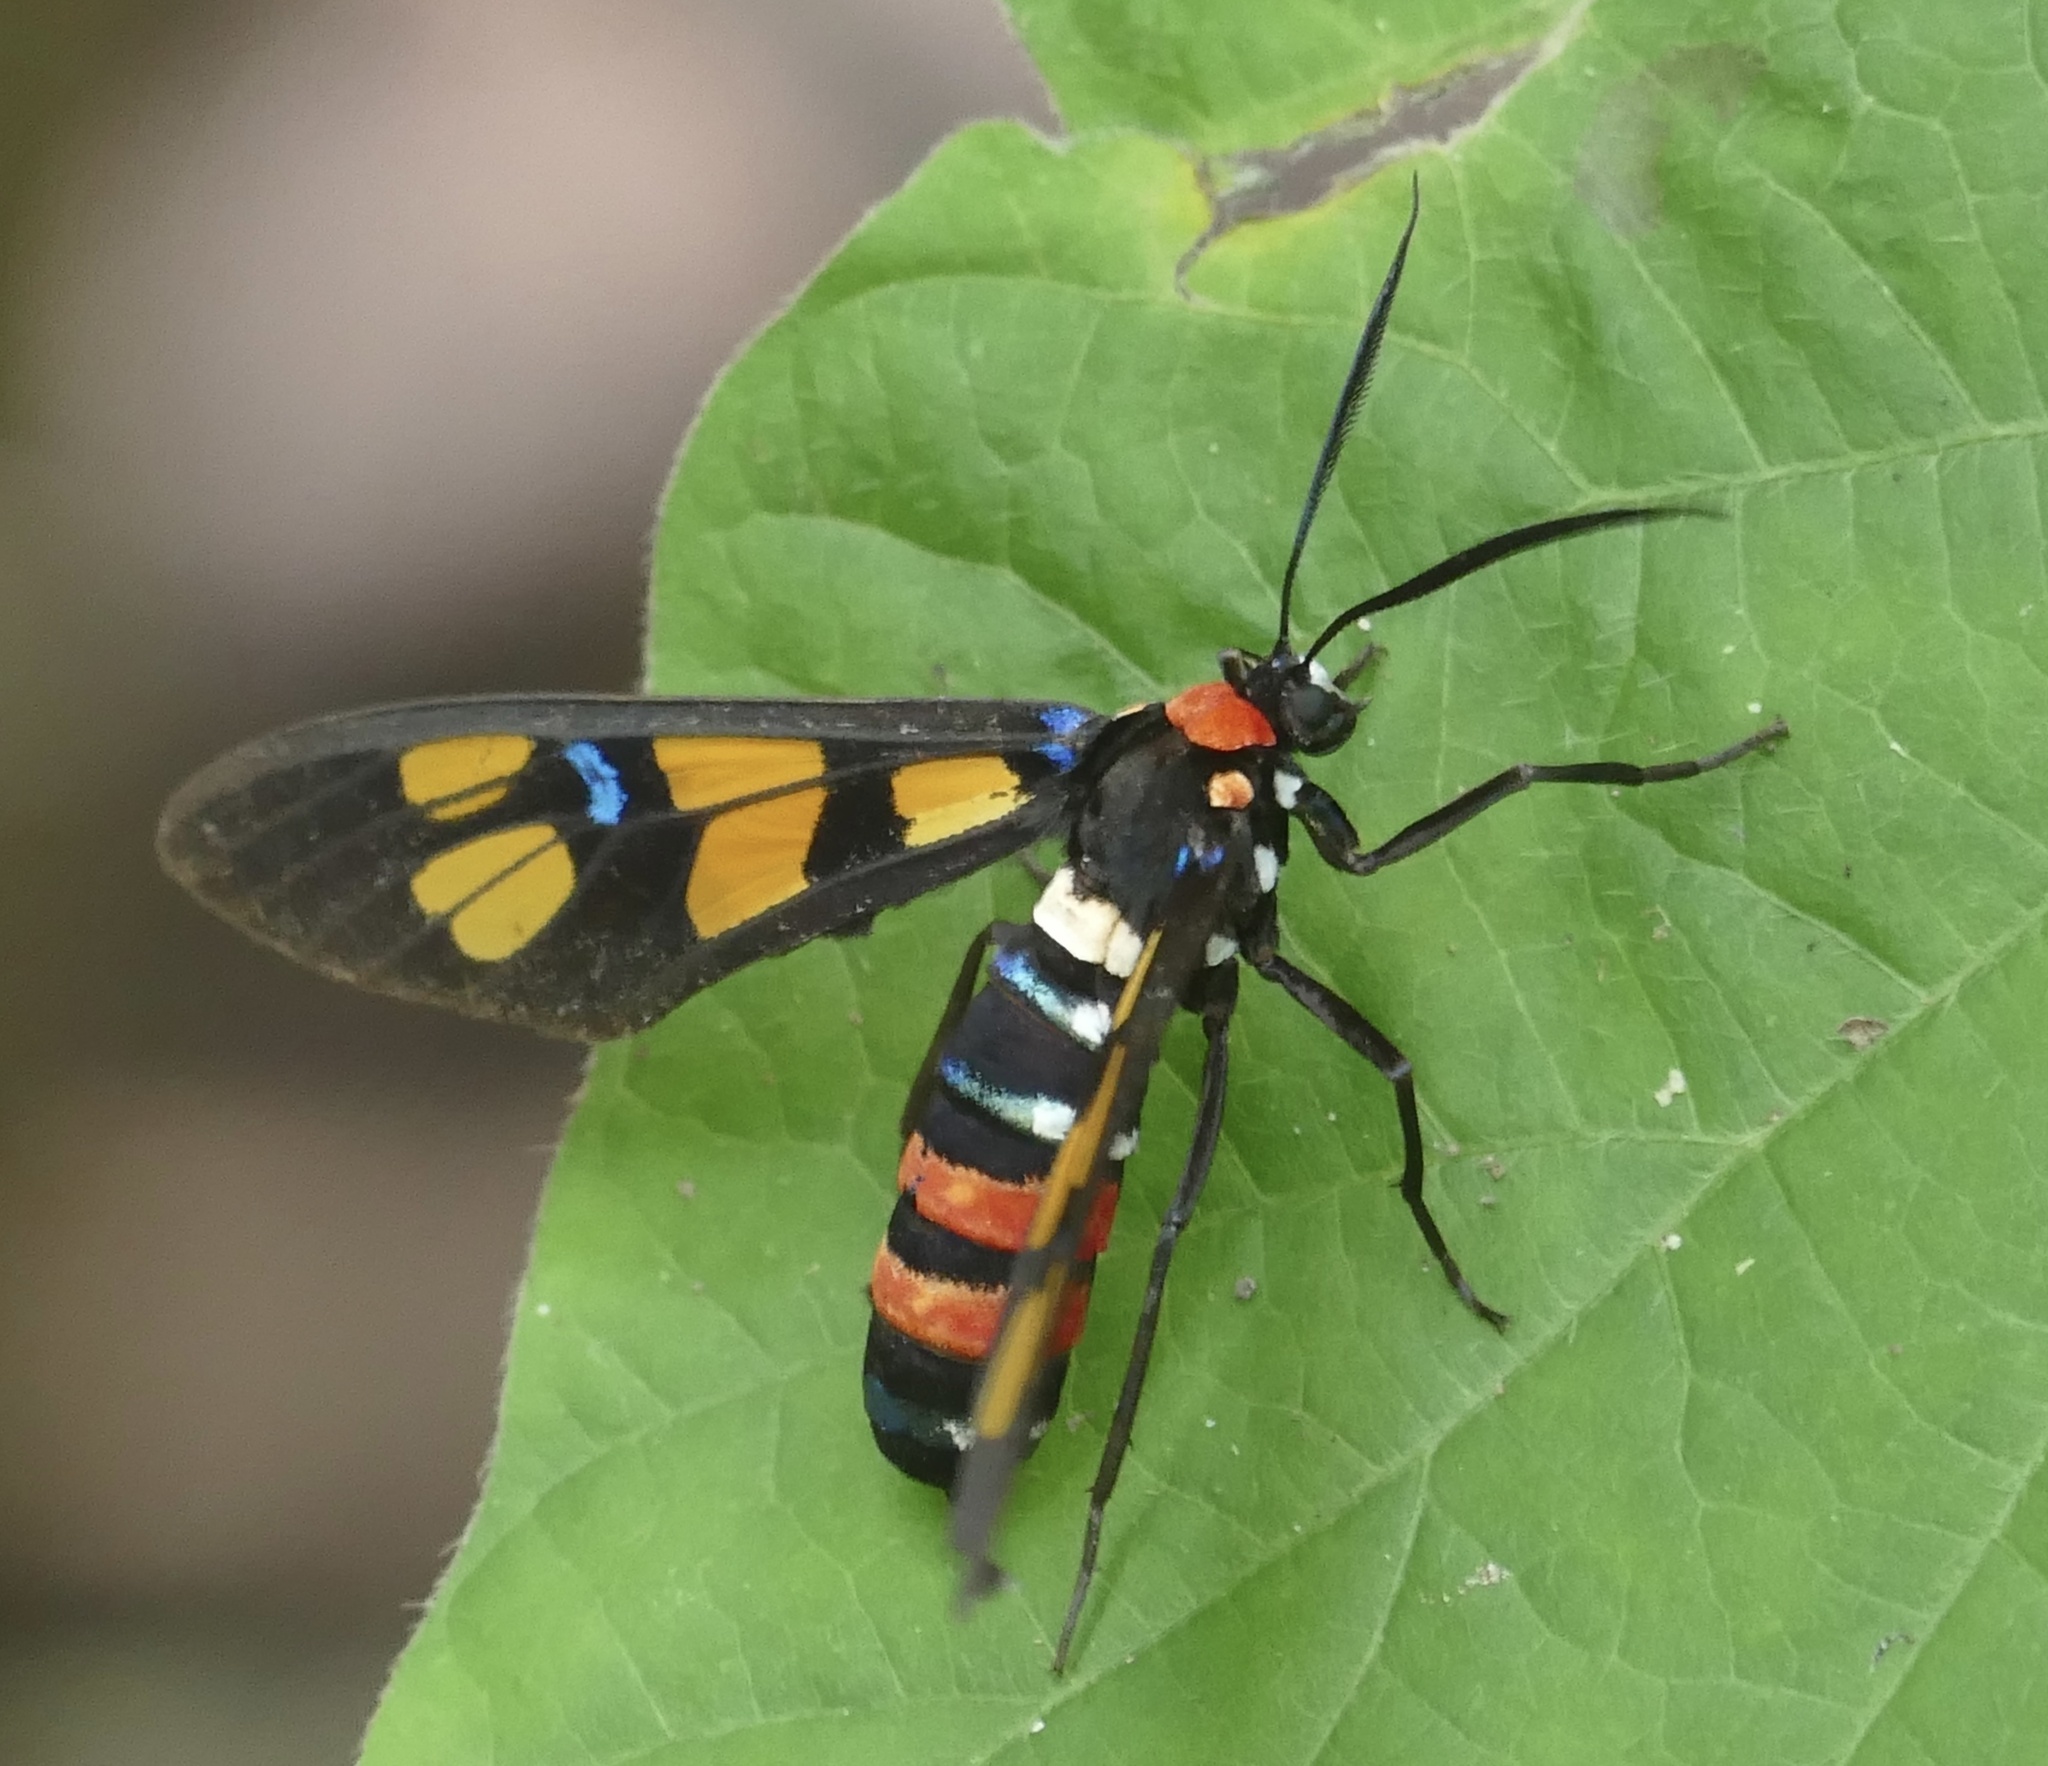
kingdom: Animalia
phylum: Arthropoda
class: Insecta
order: Lepidoptera
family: Erebidae
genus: Euchromia
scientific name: Euchromia polymena
